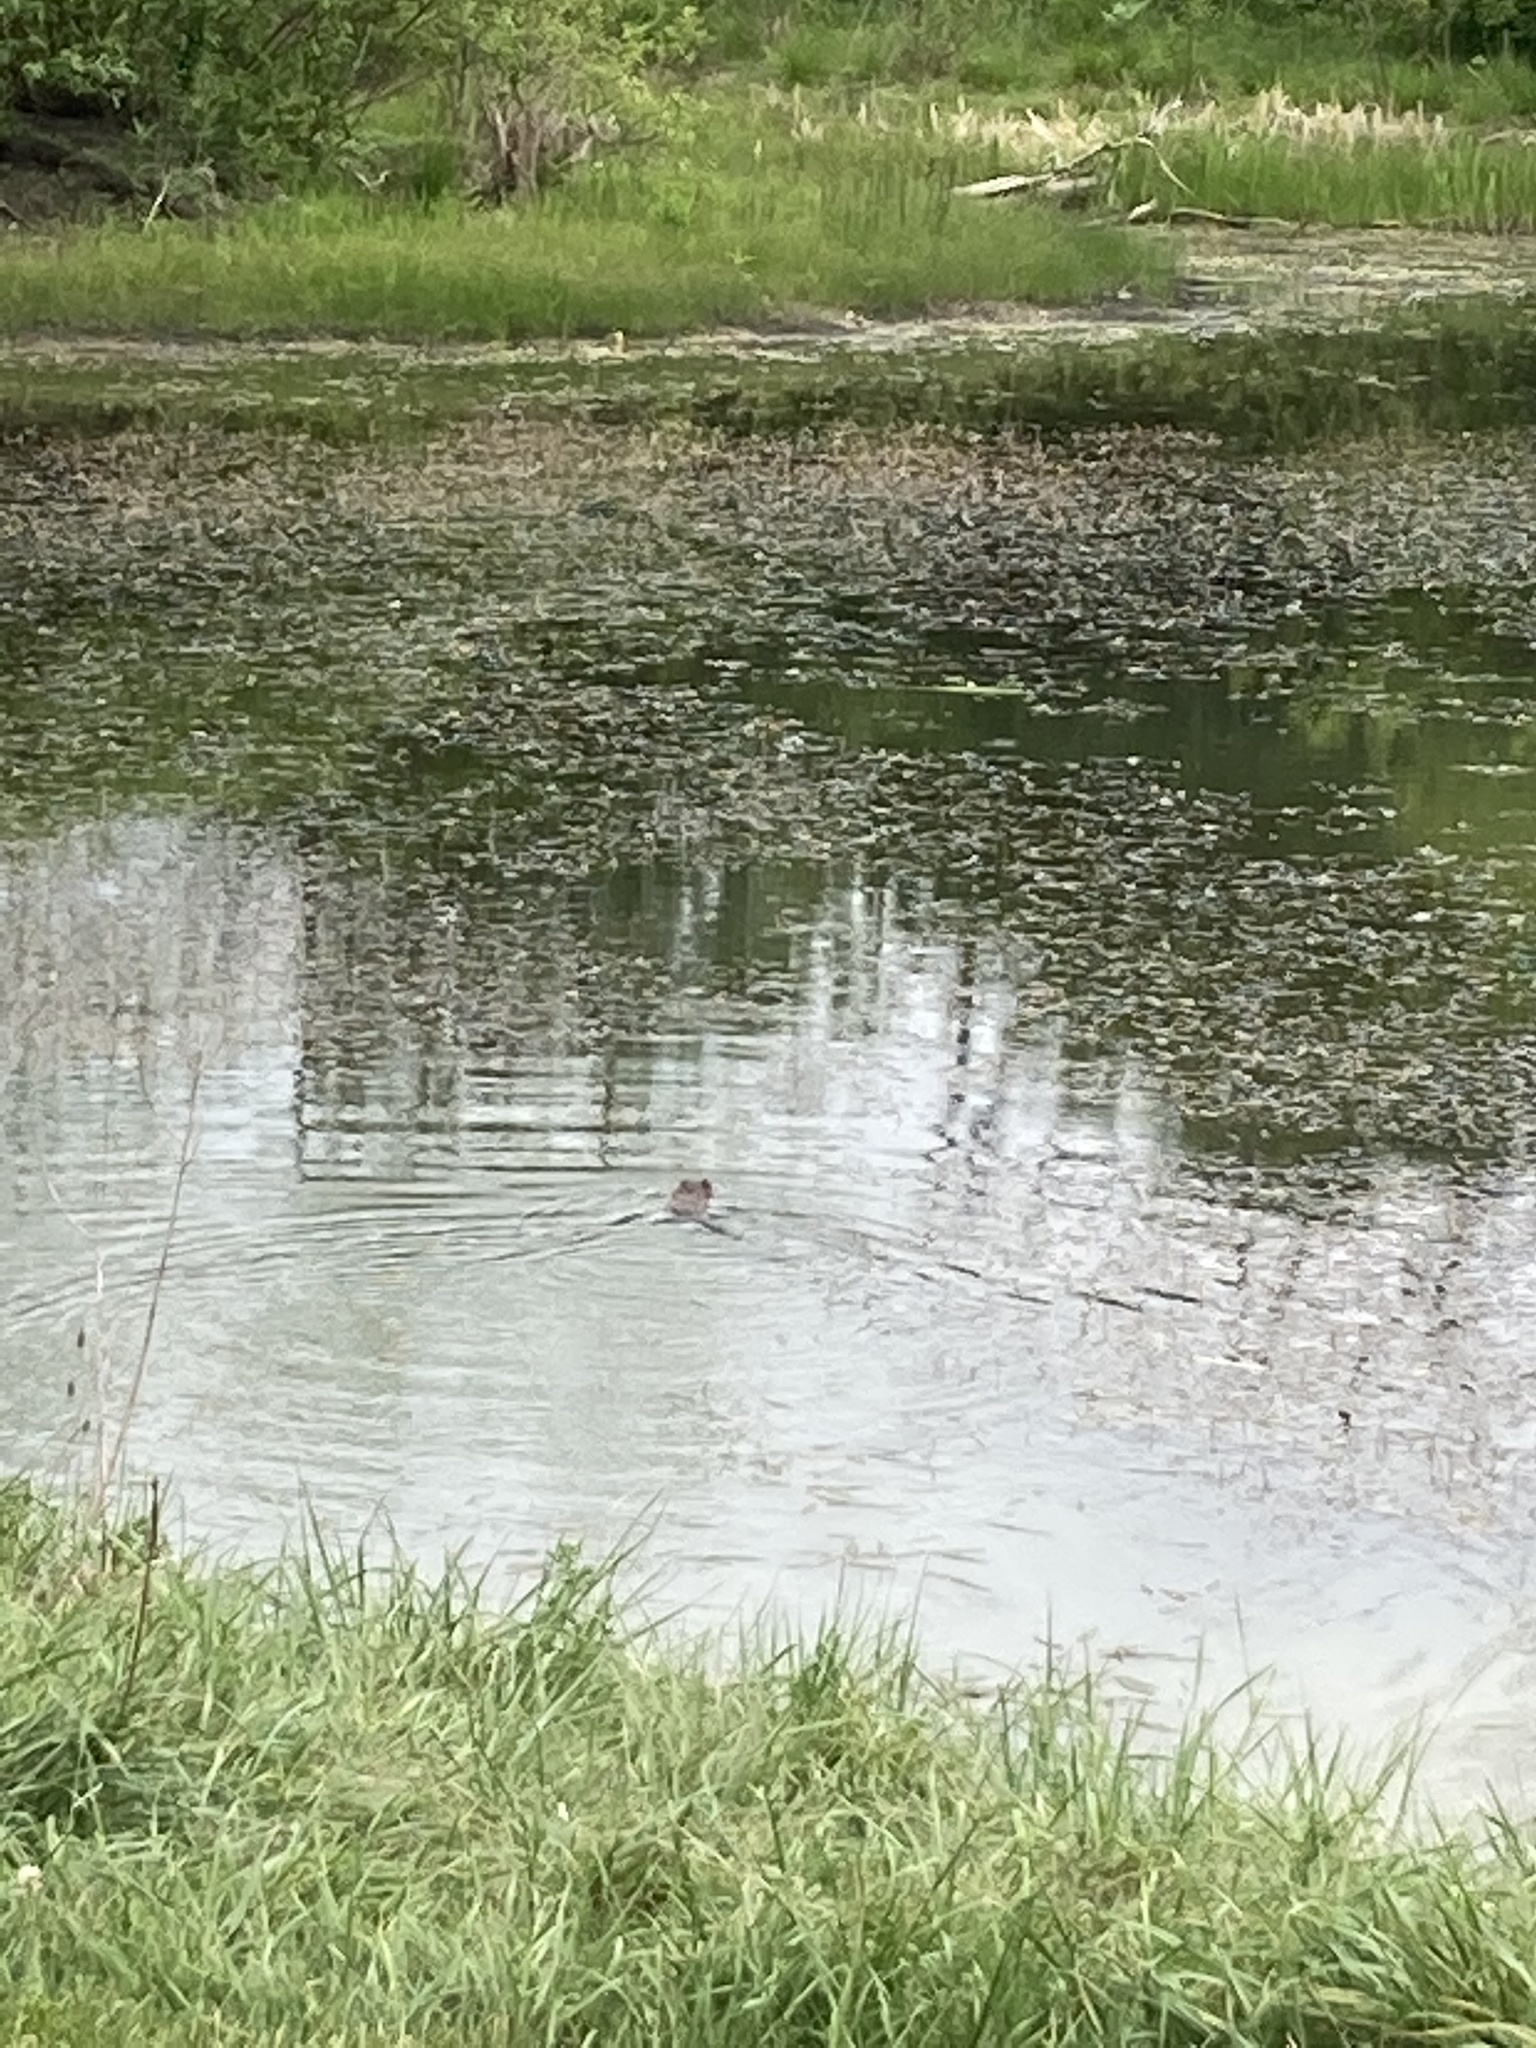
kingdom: Animalia
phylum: Chordata
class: Mammalia
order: Rodentia
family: Cricetidae
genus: Ondatra
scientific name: Ondatra zibethicus
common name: Muskrat
